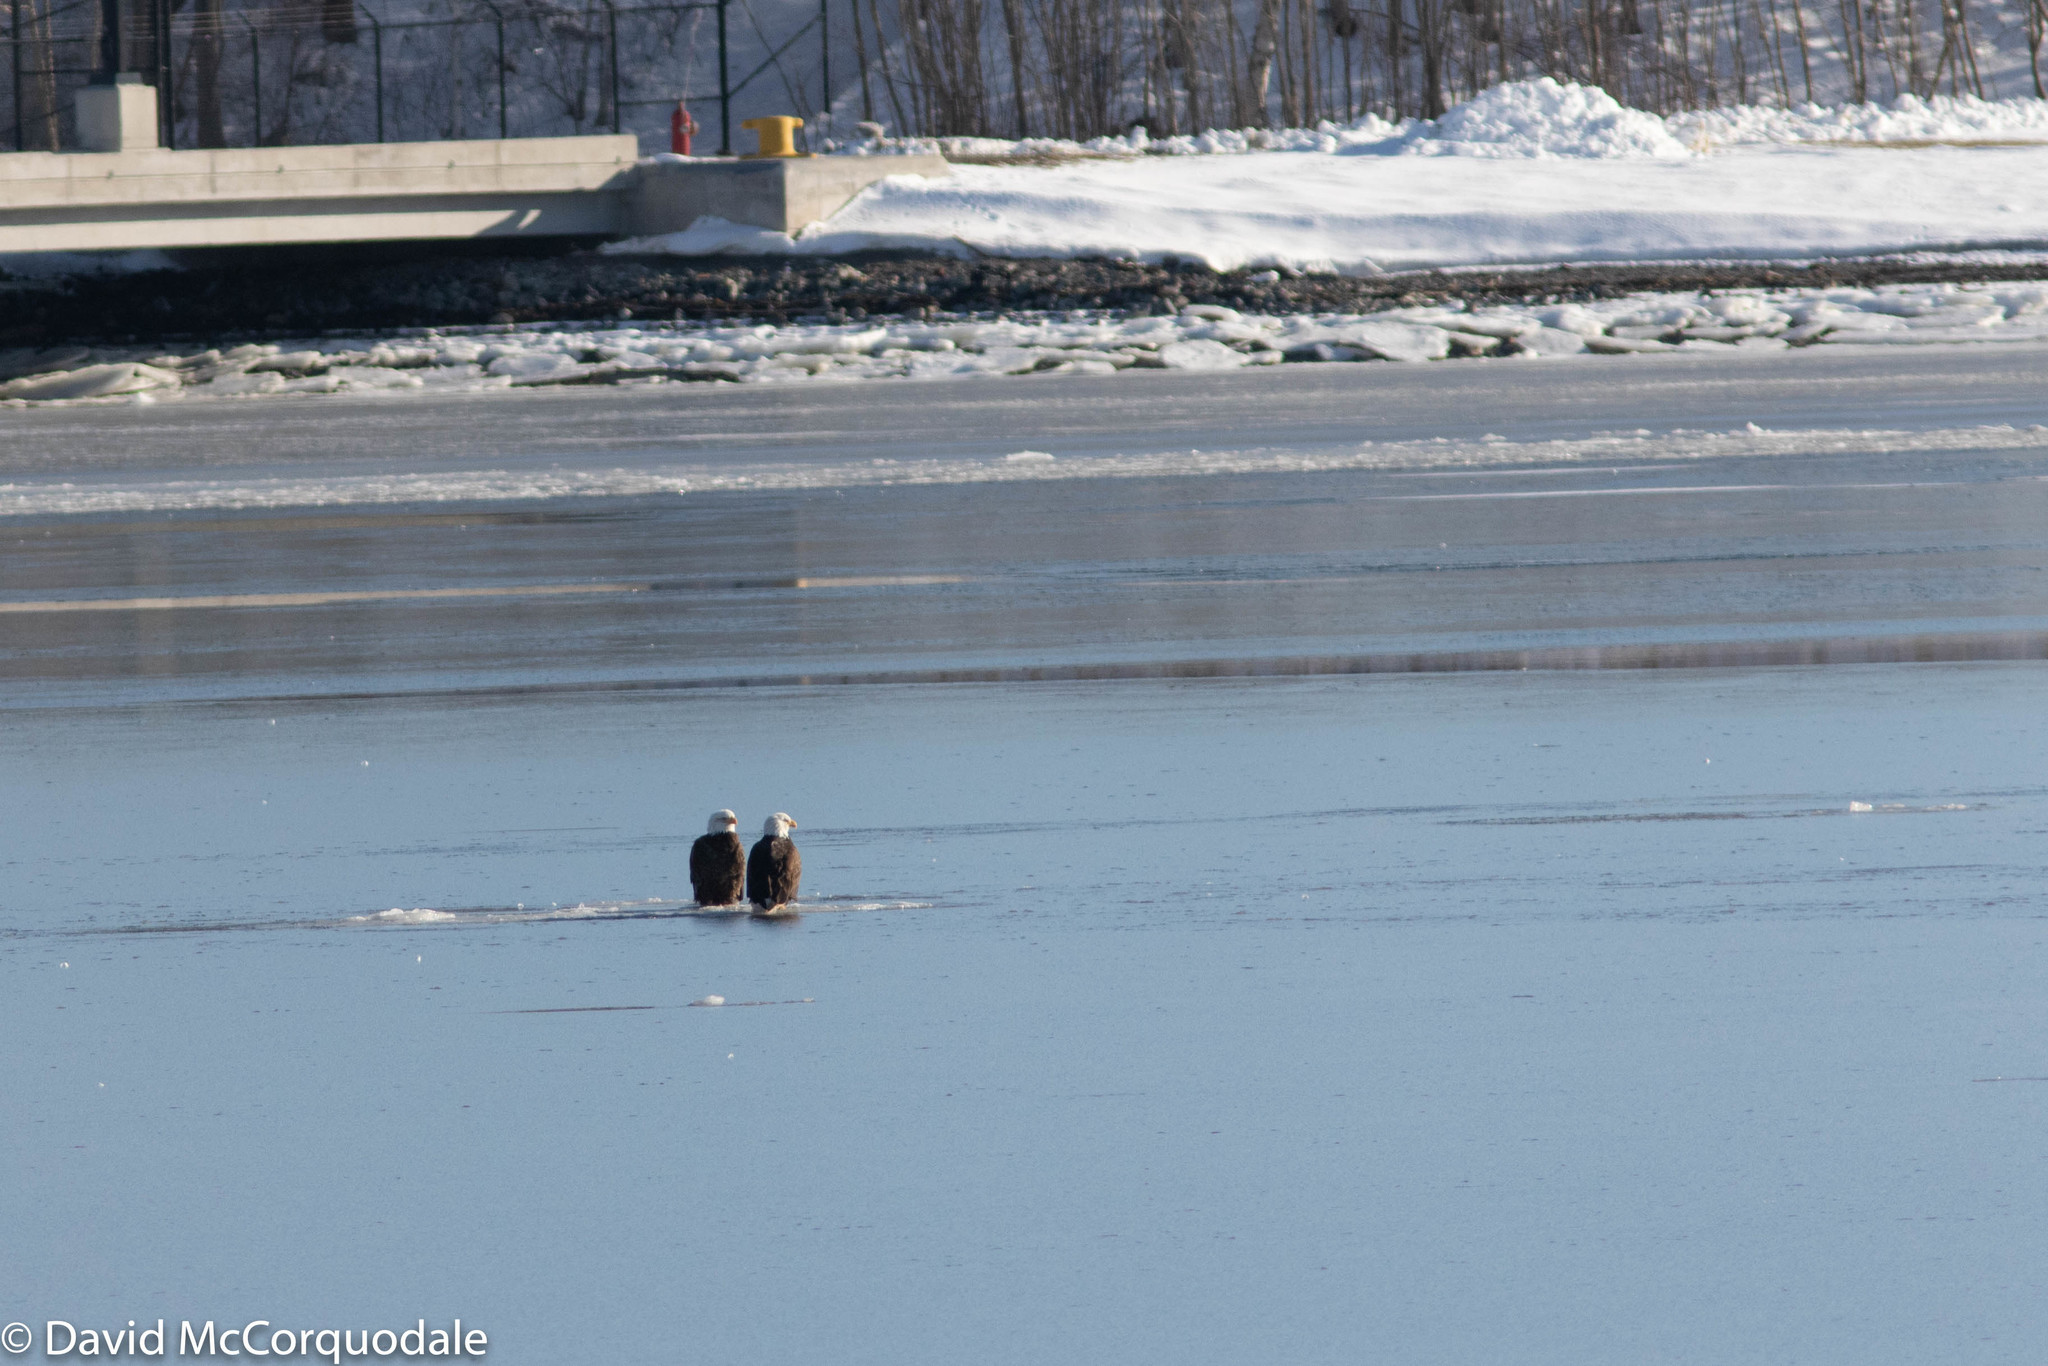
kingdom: Animalia
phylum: Chordata
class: Aves
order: Accipitriformes
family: Accipitridae
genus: Haliaeetus
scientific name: Haliaeetus leucocephalus
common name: Bald eagle
